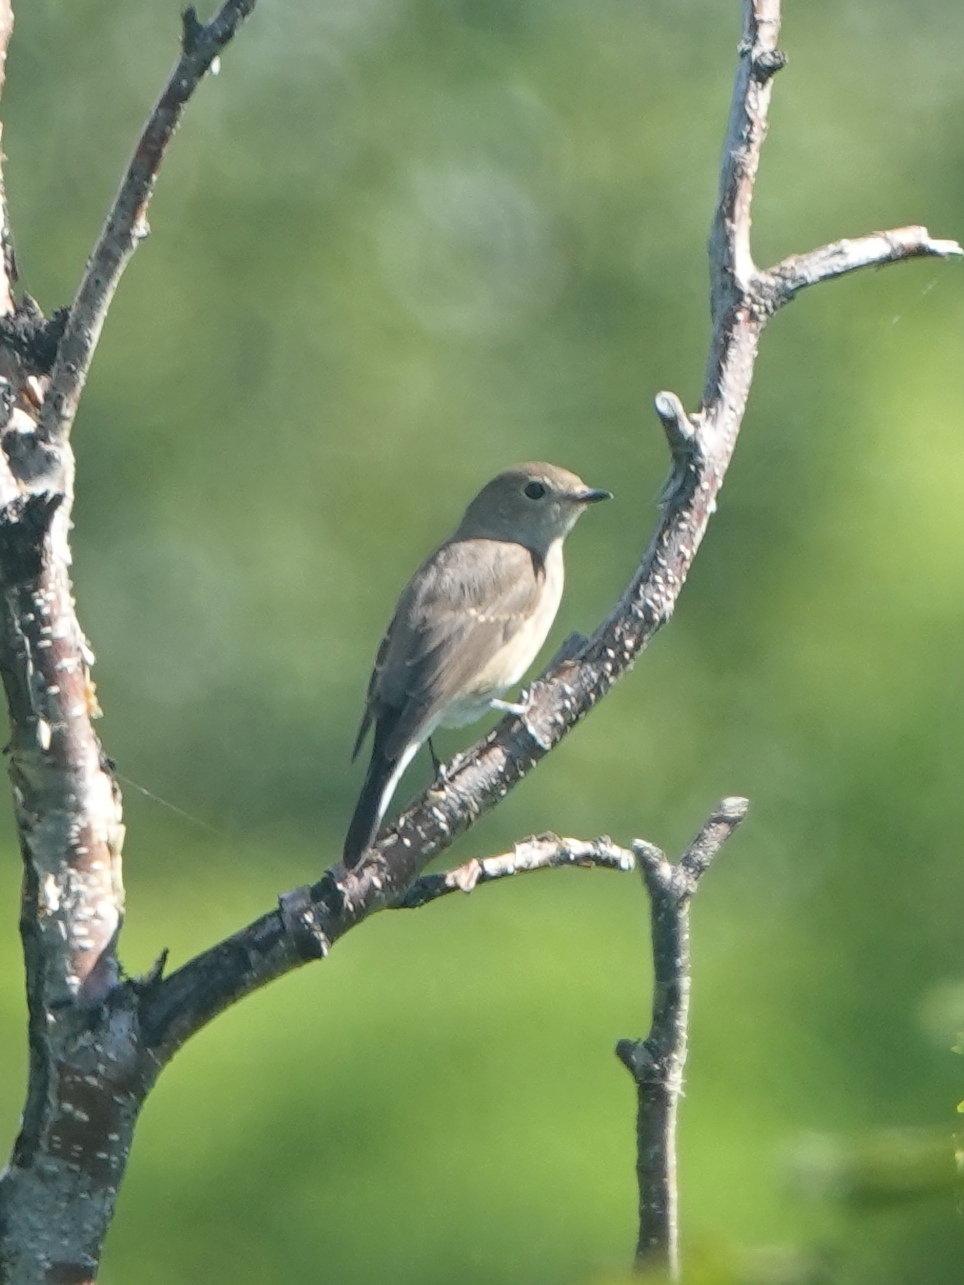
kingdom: Animalia
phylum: Chordata
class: Aves
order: Passeriformes
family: Muscicapidae
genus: Ficedula
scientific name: Ficedula albicilla
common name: Taiga flycatcher
